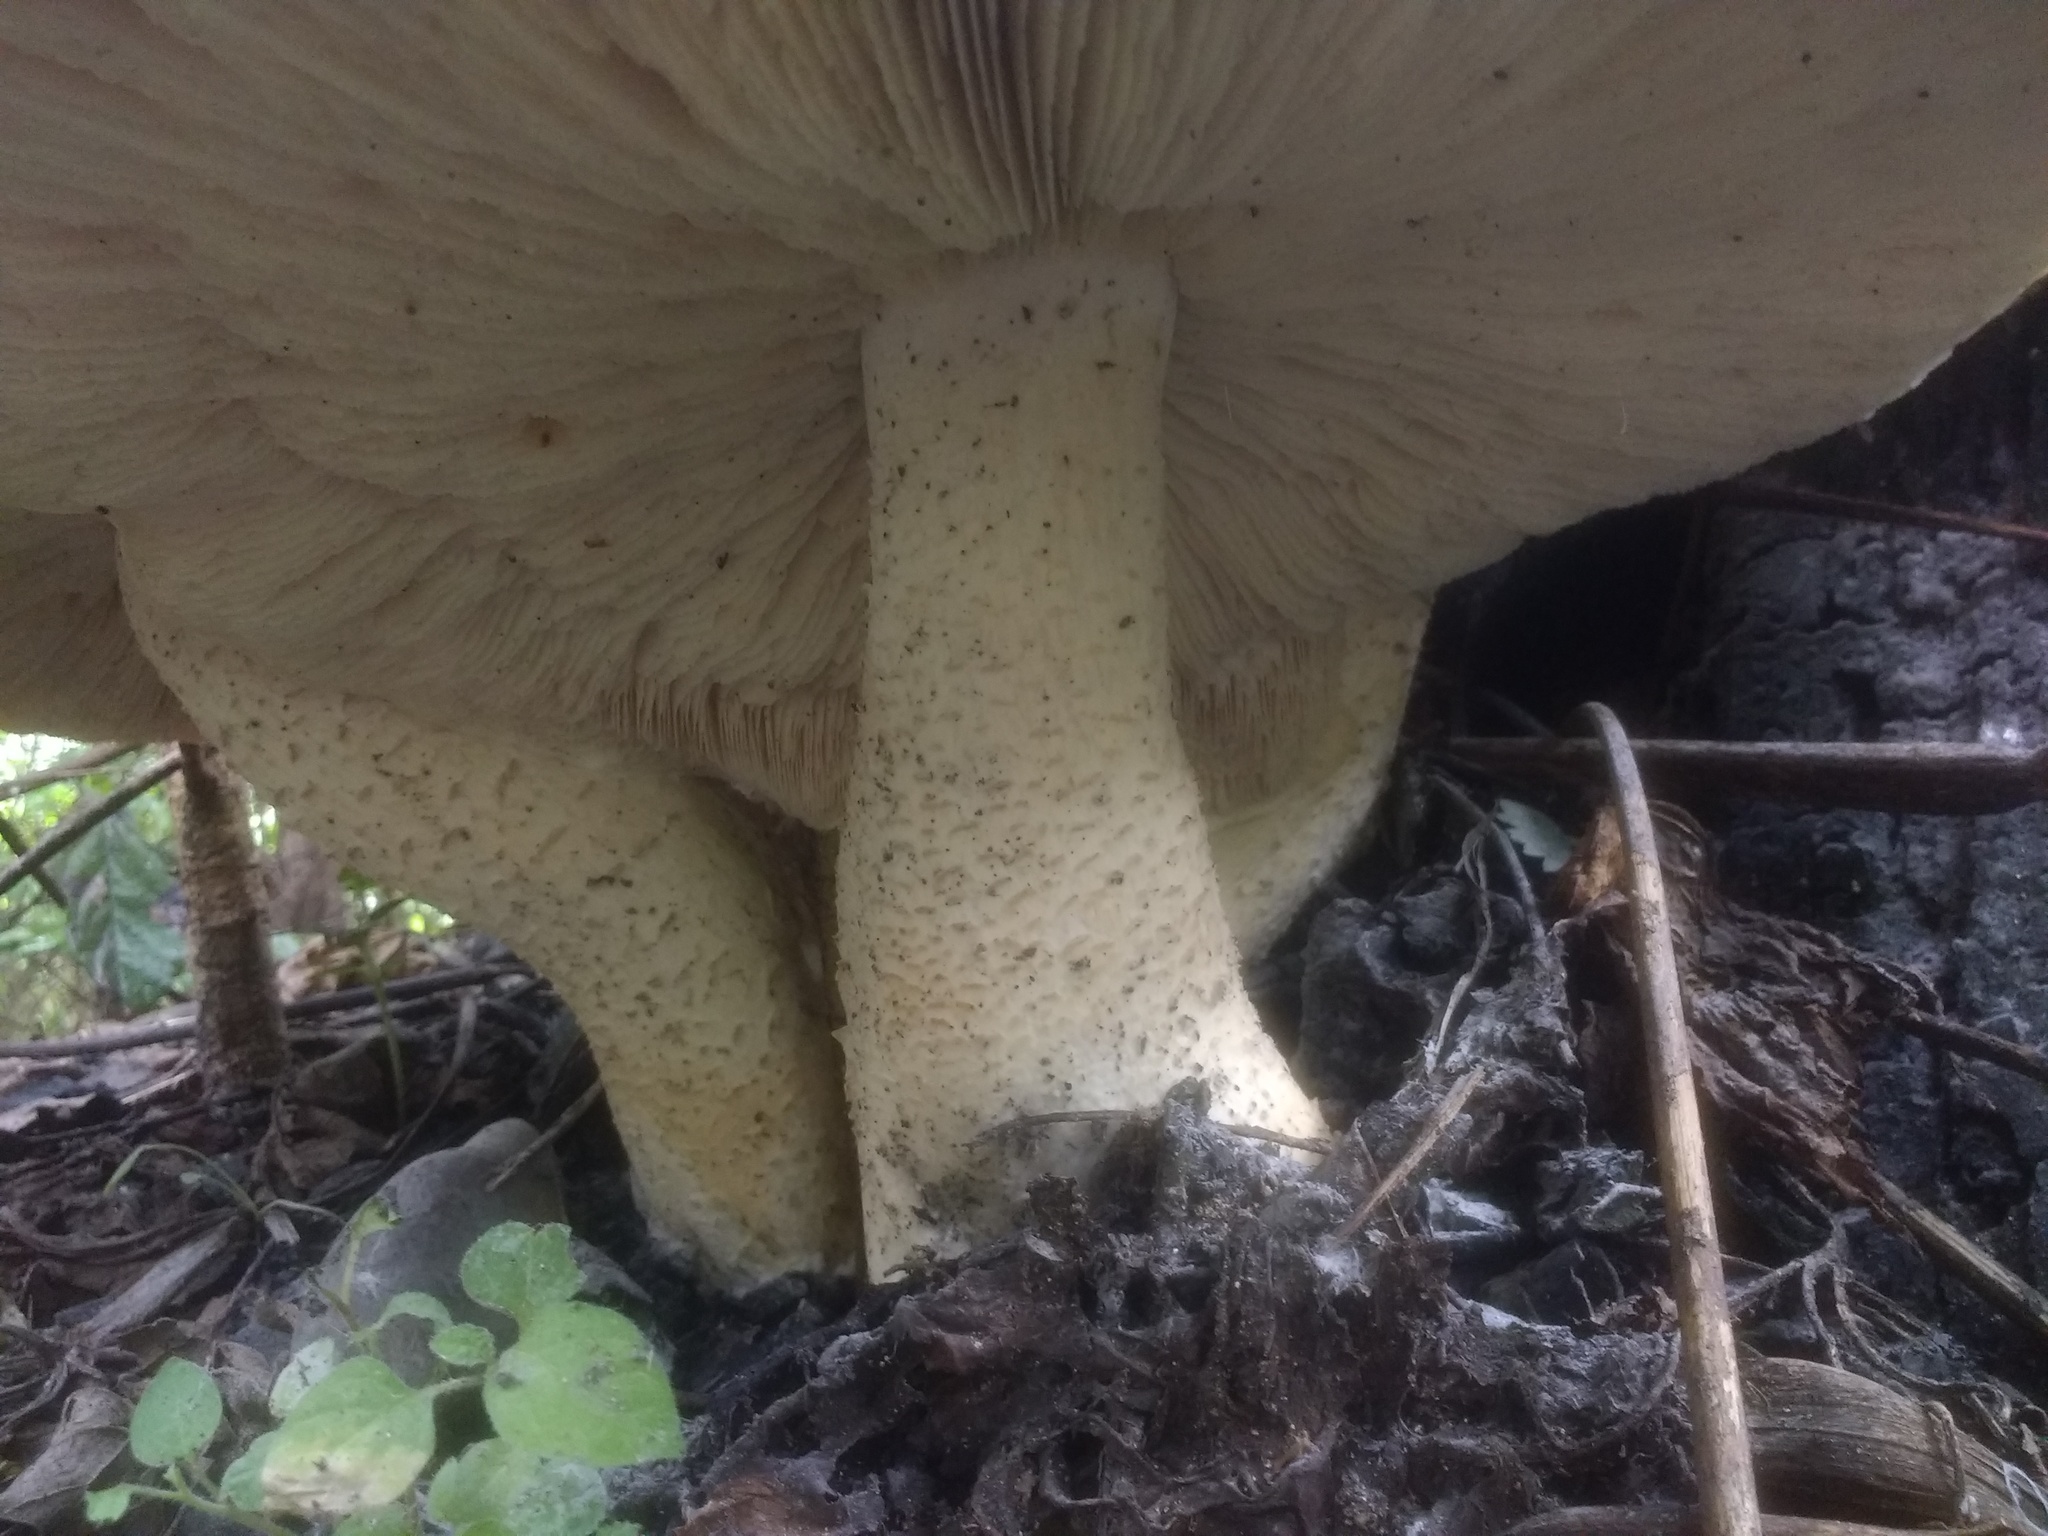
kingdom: Fungi
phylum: Basidiomycota
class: Agaricomycetes
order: Agaricales
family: Callistosporiaceae
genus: Macrocybe
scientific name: Macrocybe titans
